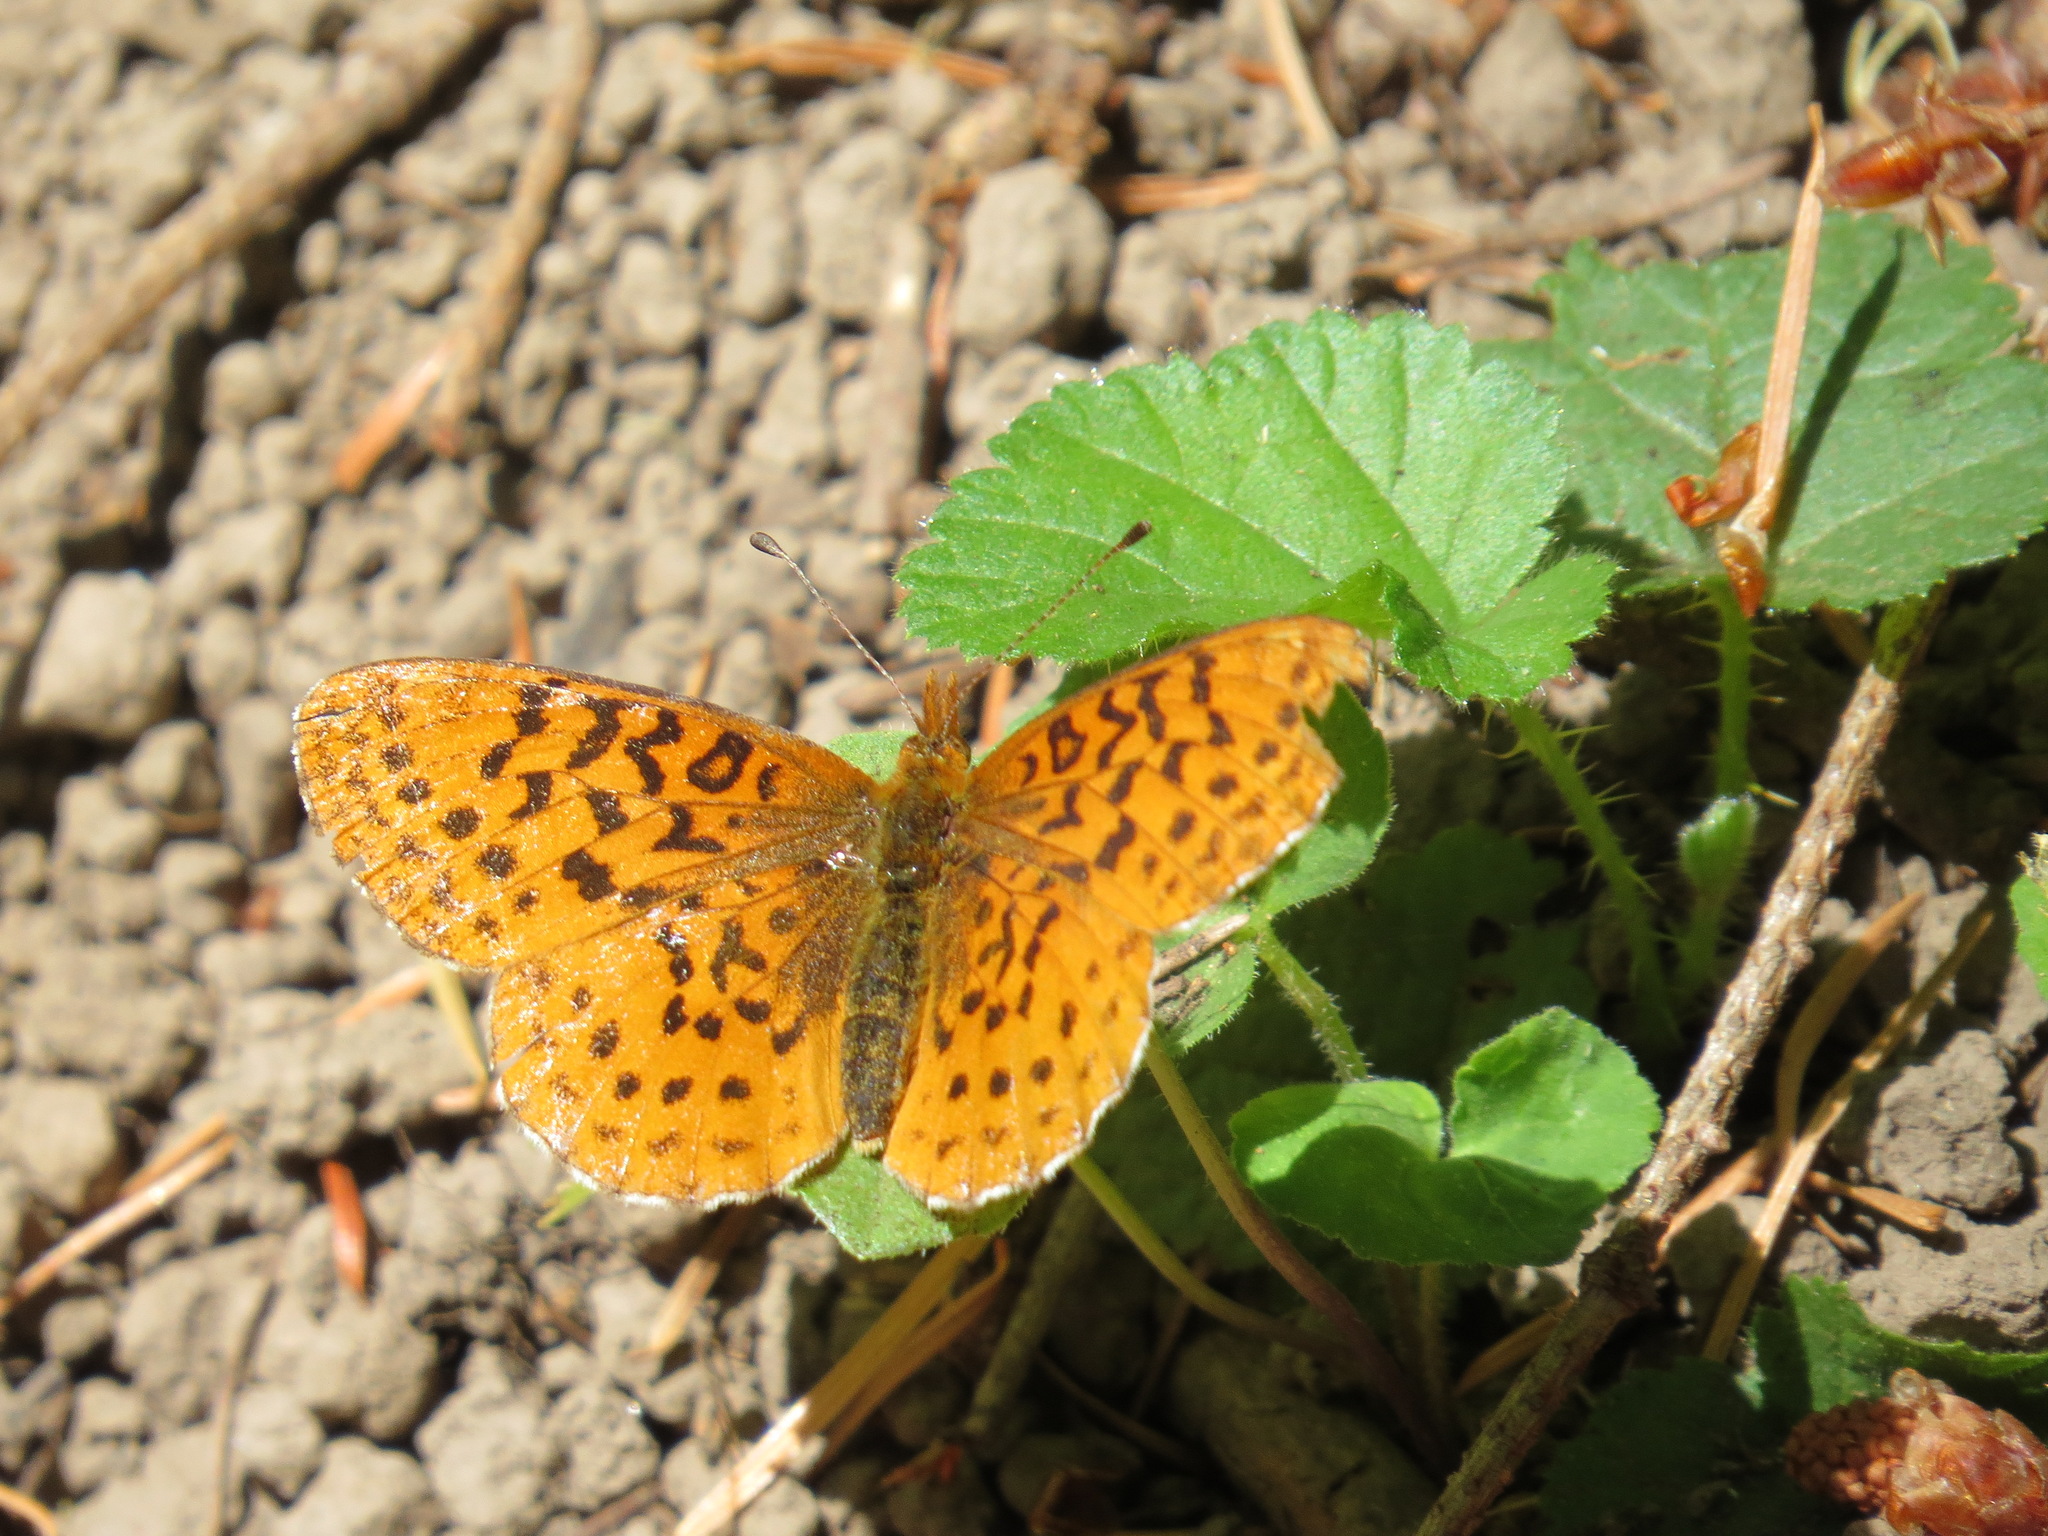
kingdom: Animalia
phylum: Arthropoda
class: Insecta
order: Lepidoptera
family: Nymphalidae
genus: Boloria
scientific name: Boloria epithore
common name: Pacific fritillary
